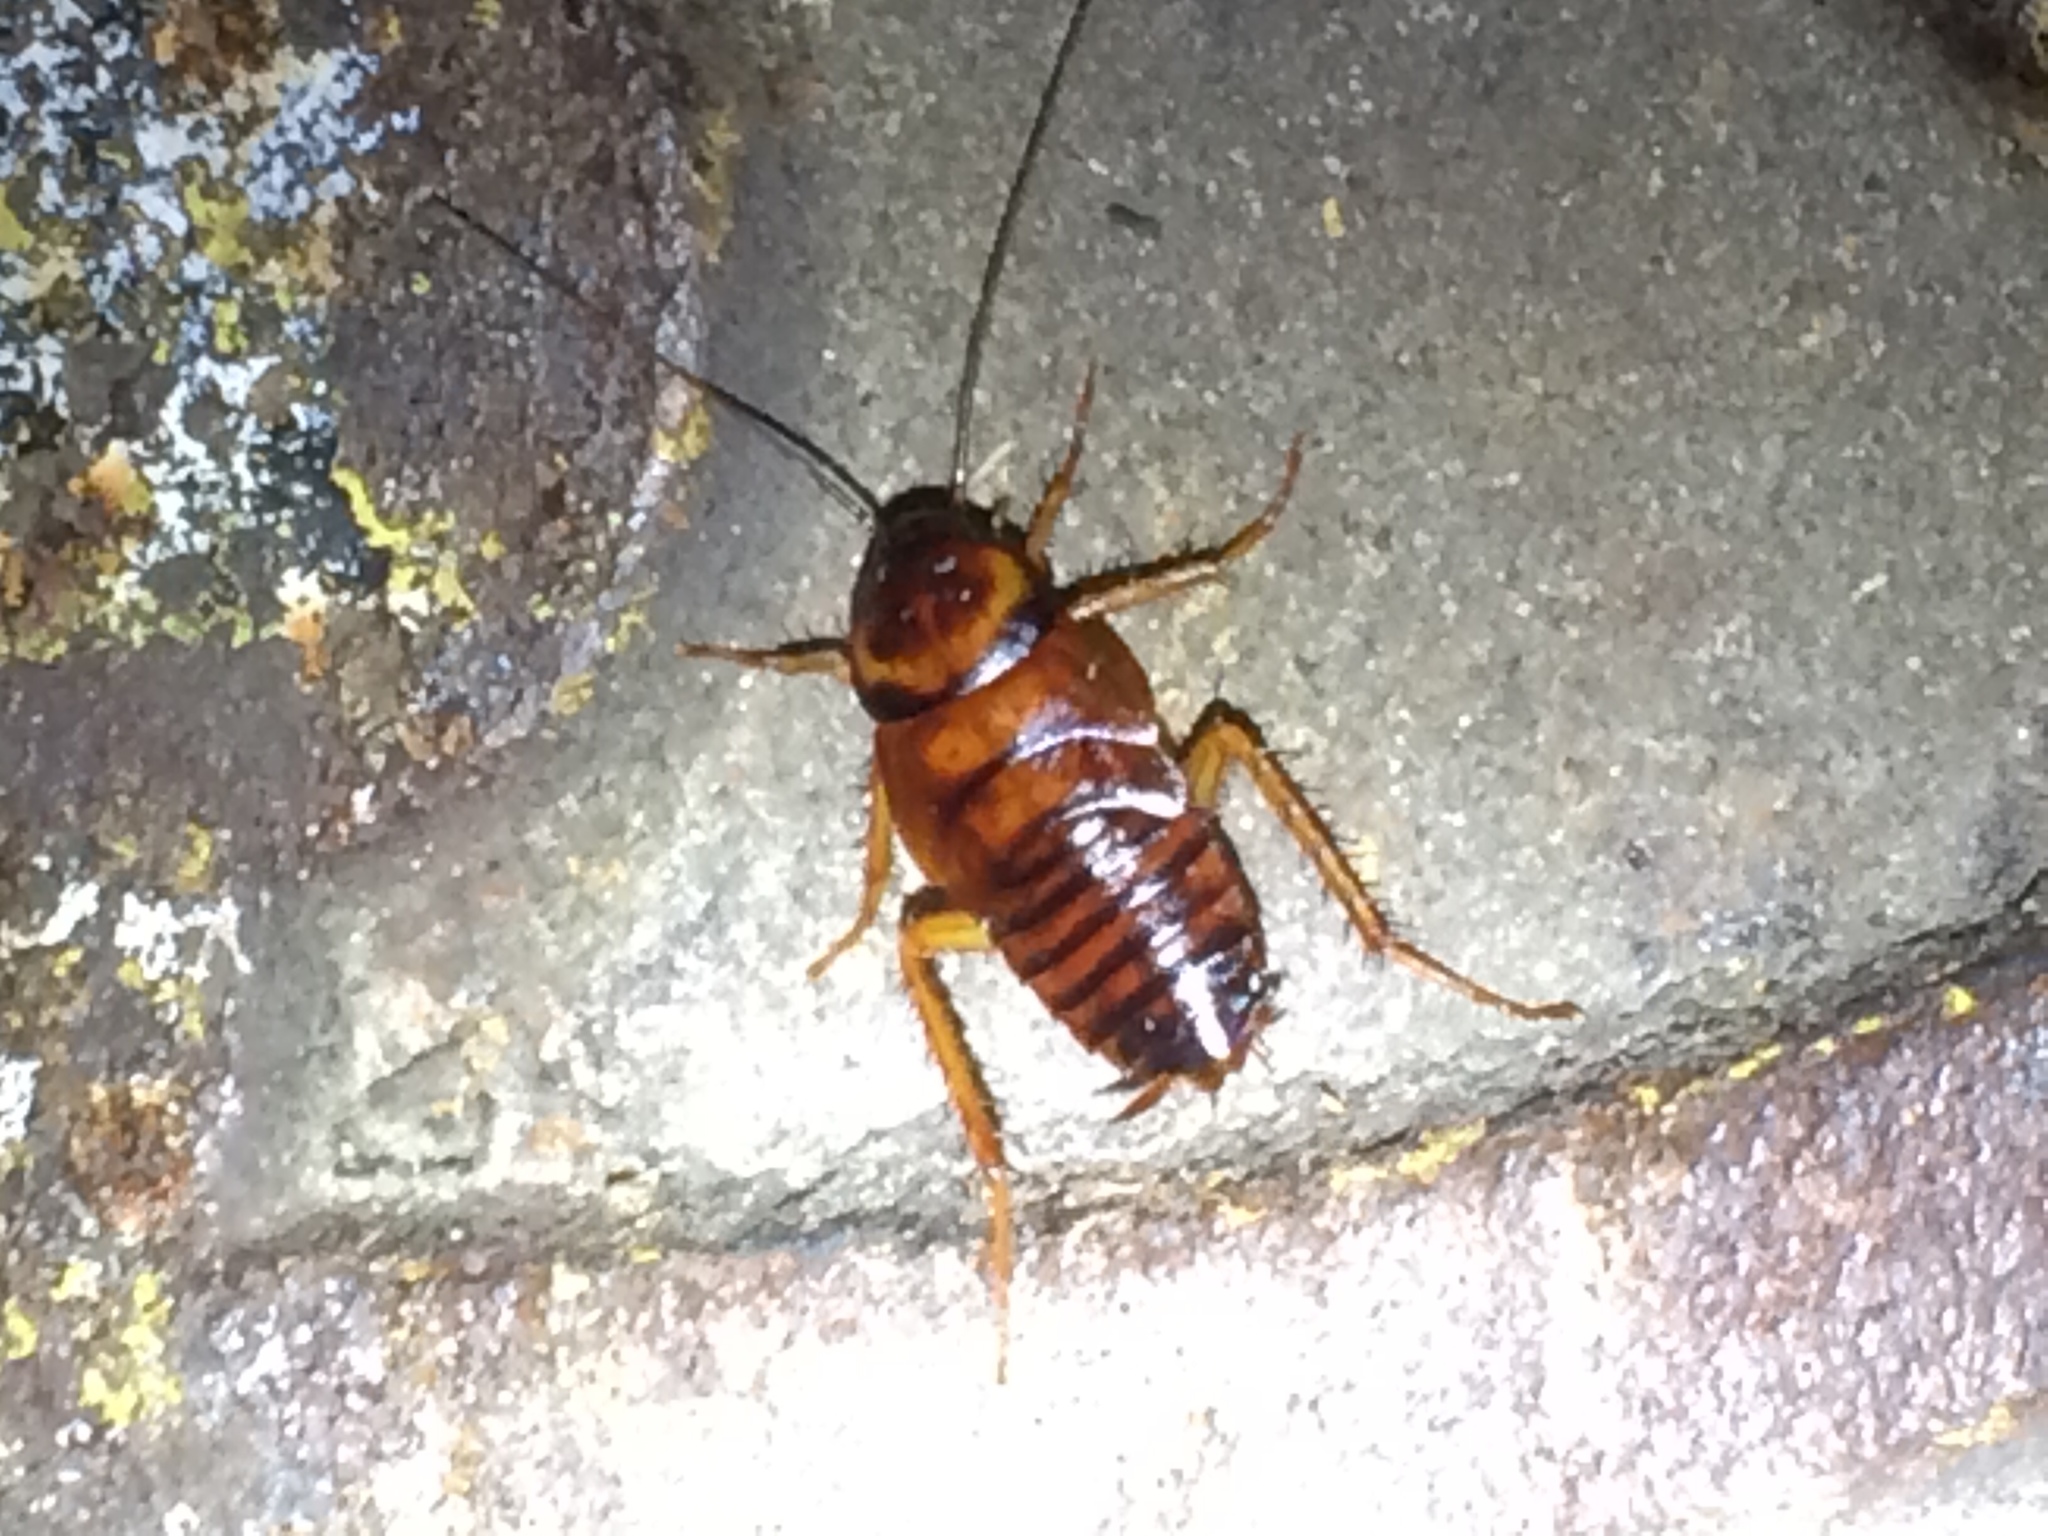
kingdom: Animalia
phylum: Arthropoda
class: Insecta
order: Blattodea
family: Blattidae
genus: Periplaneta
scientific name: Periplaneta americana
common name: American cockroach
